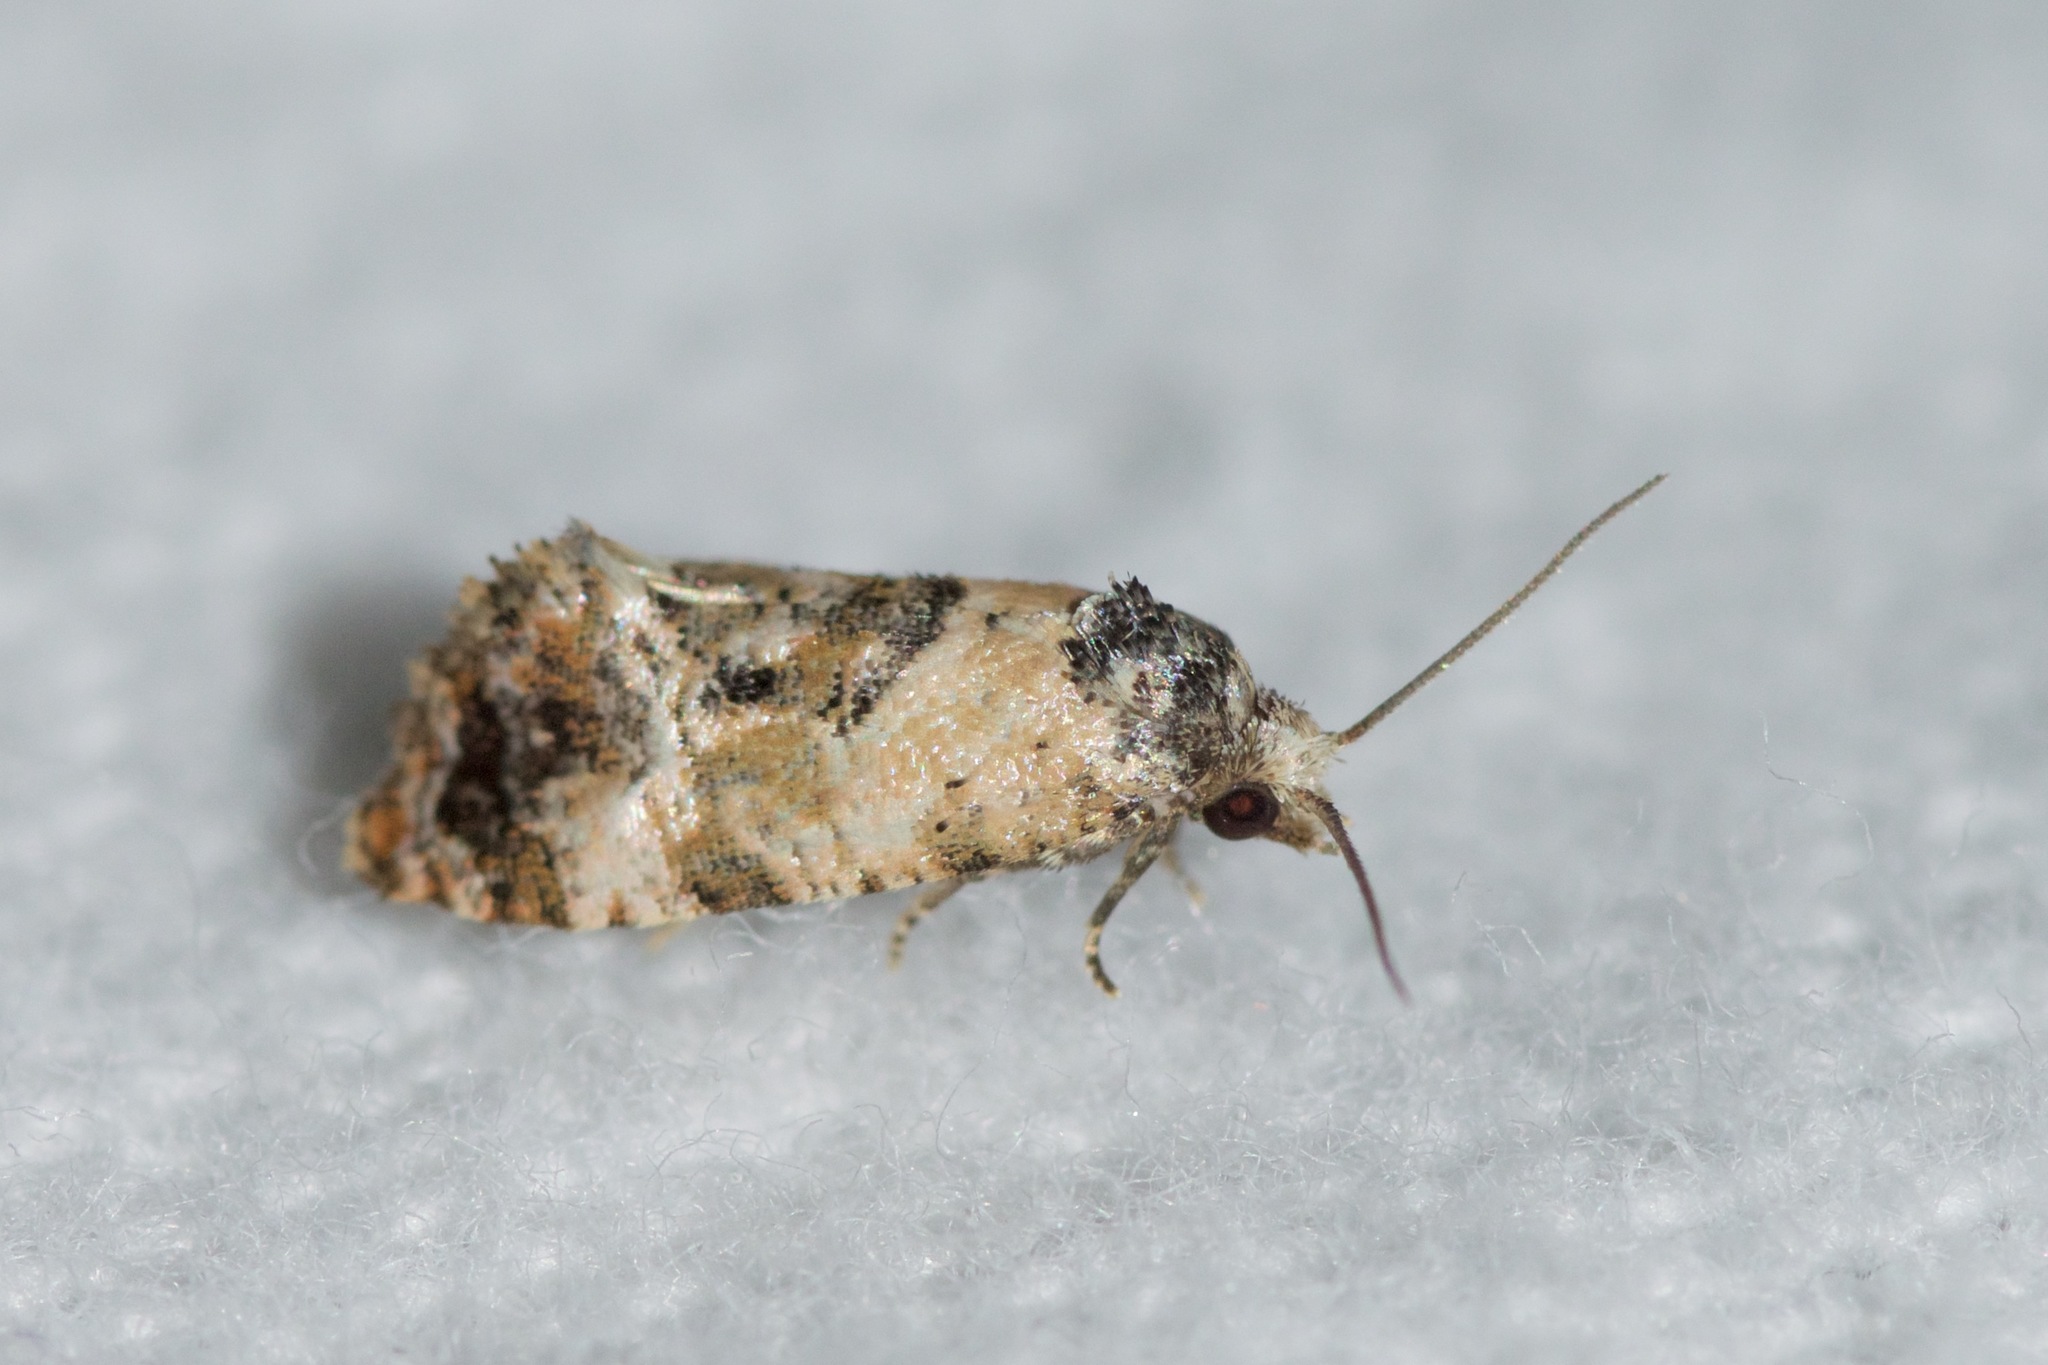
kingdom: Animalia
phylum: Arthropoda
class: Insecta
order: Lepidoptera
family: Tortricidae
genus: Cochylis
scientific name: Cochylis Cochylichroa hoffmanana
